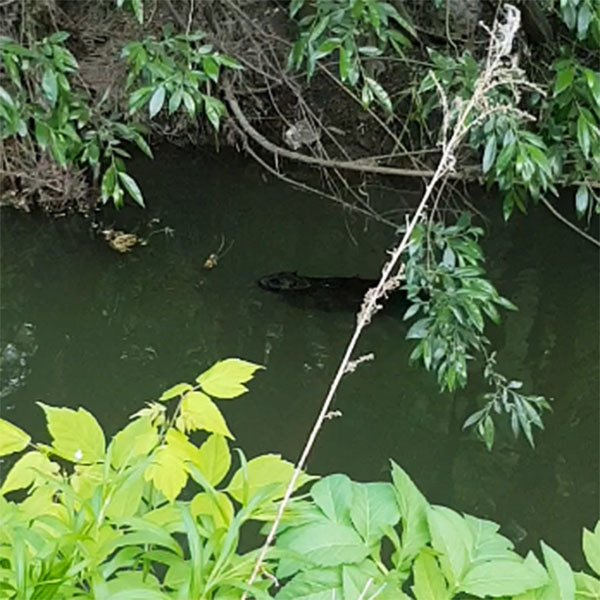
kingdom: Animalia
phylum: Chordata
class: Mammalia
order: Rodentia
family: Castoridae
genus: Castor
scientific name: Castor fiber
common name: Eurasian beaver
